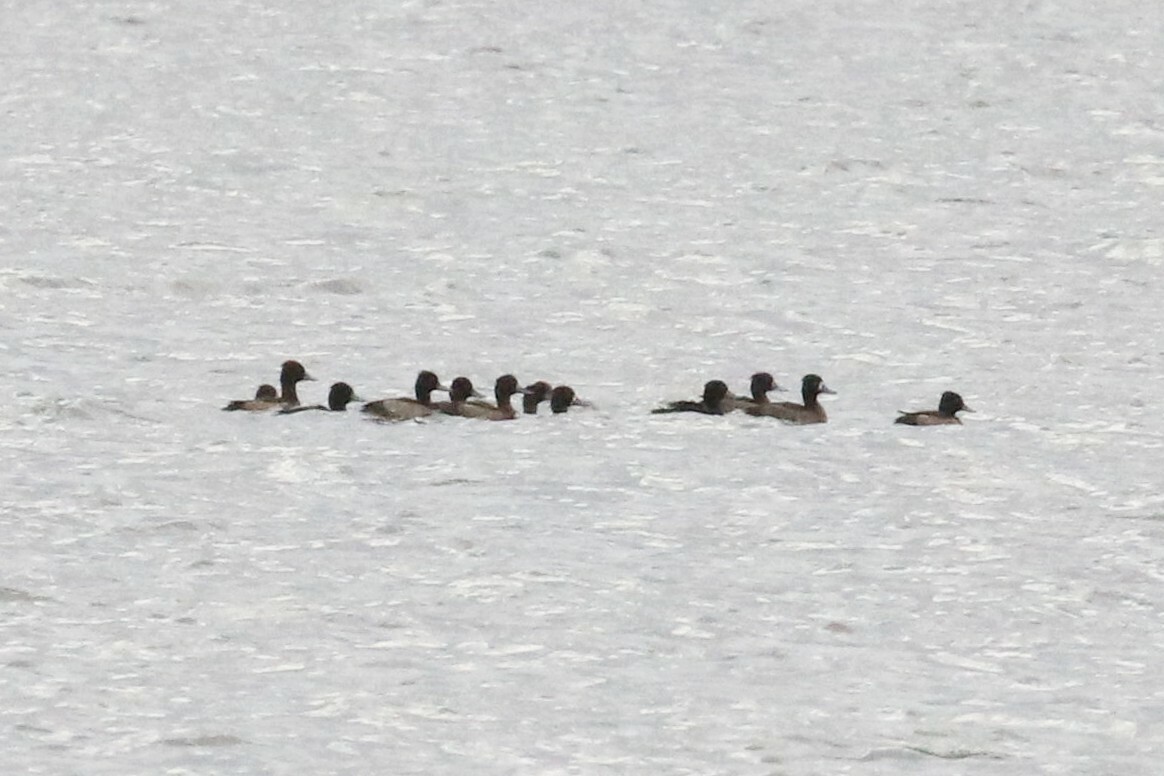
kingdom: Animalia
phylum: Chordata
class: Aves
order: Anseriformes
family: Anatidae
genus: Aythya
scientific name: Aythya fuligula
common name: Tufted duck
